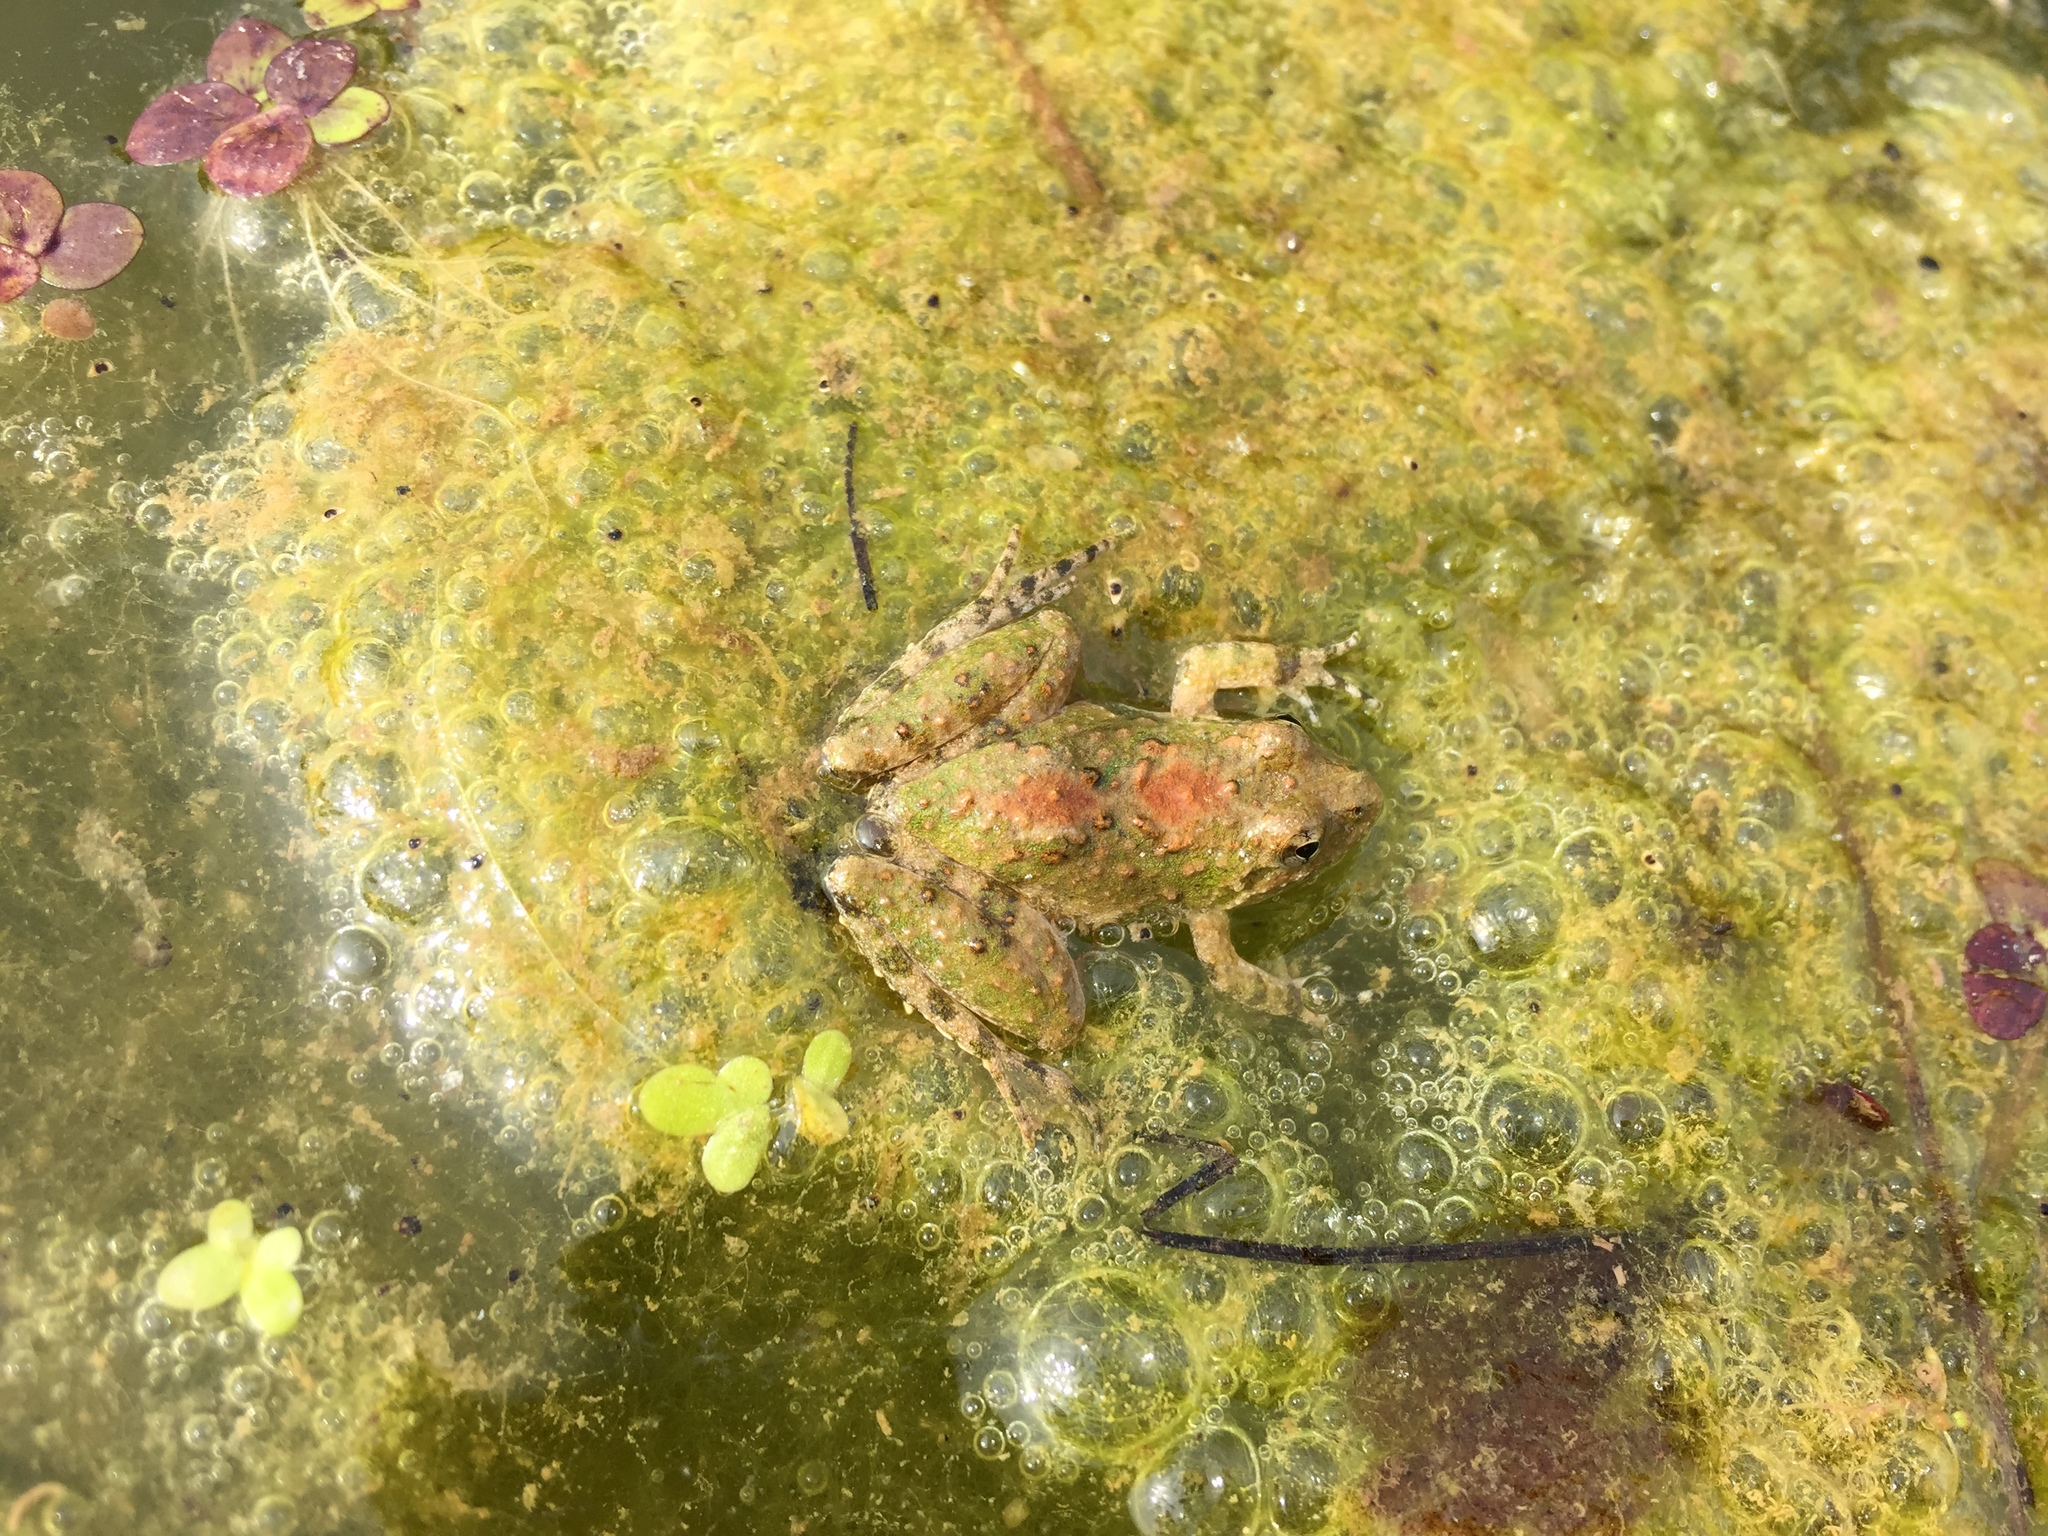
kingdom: Animalia
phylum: Chordata
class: Amphibia
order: Anura
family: Hylidae
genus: Acris
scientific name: Acris blanchardi
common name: Blanchard's cricket frog
